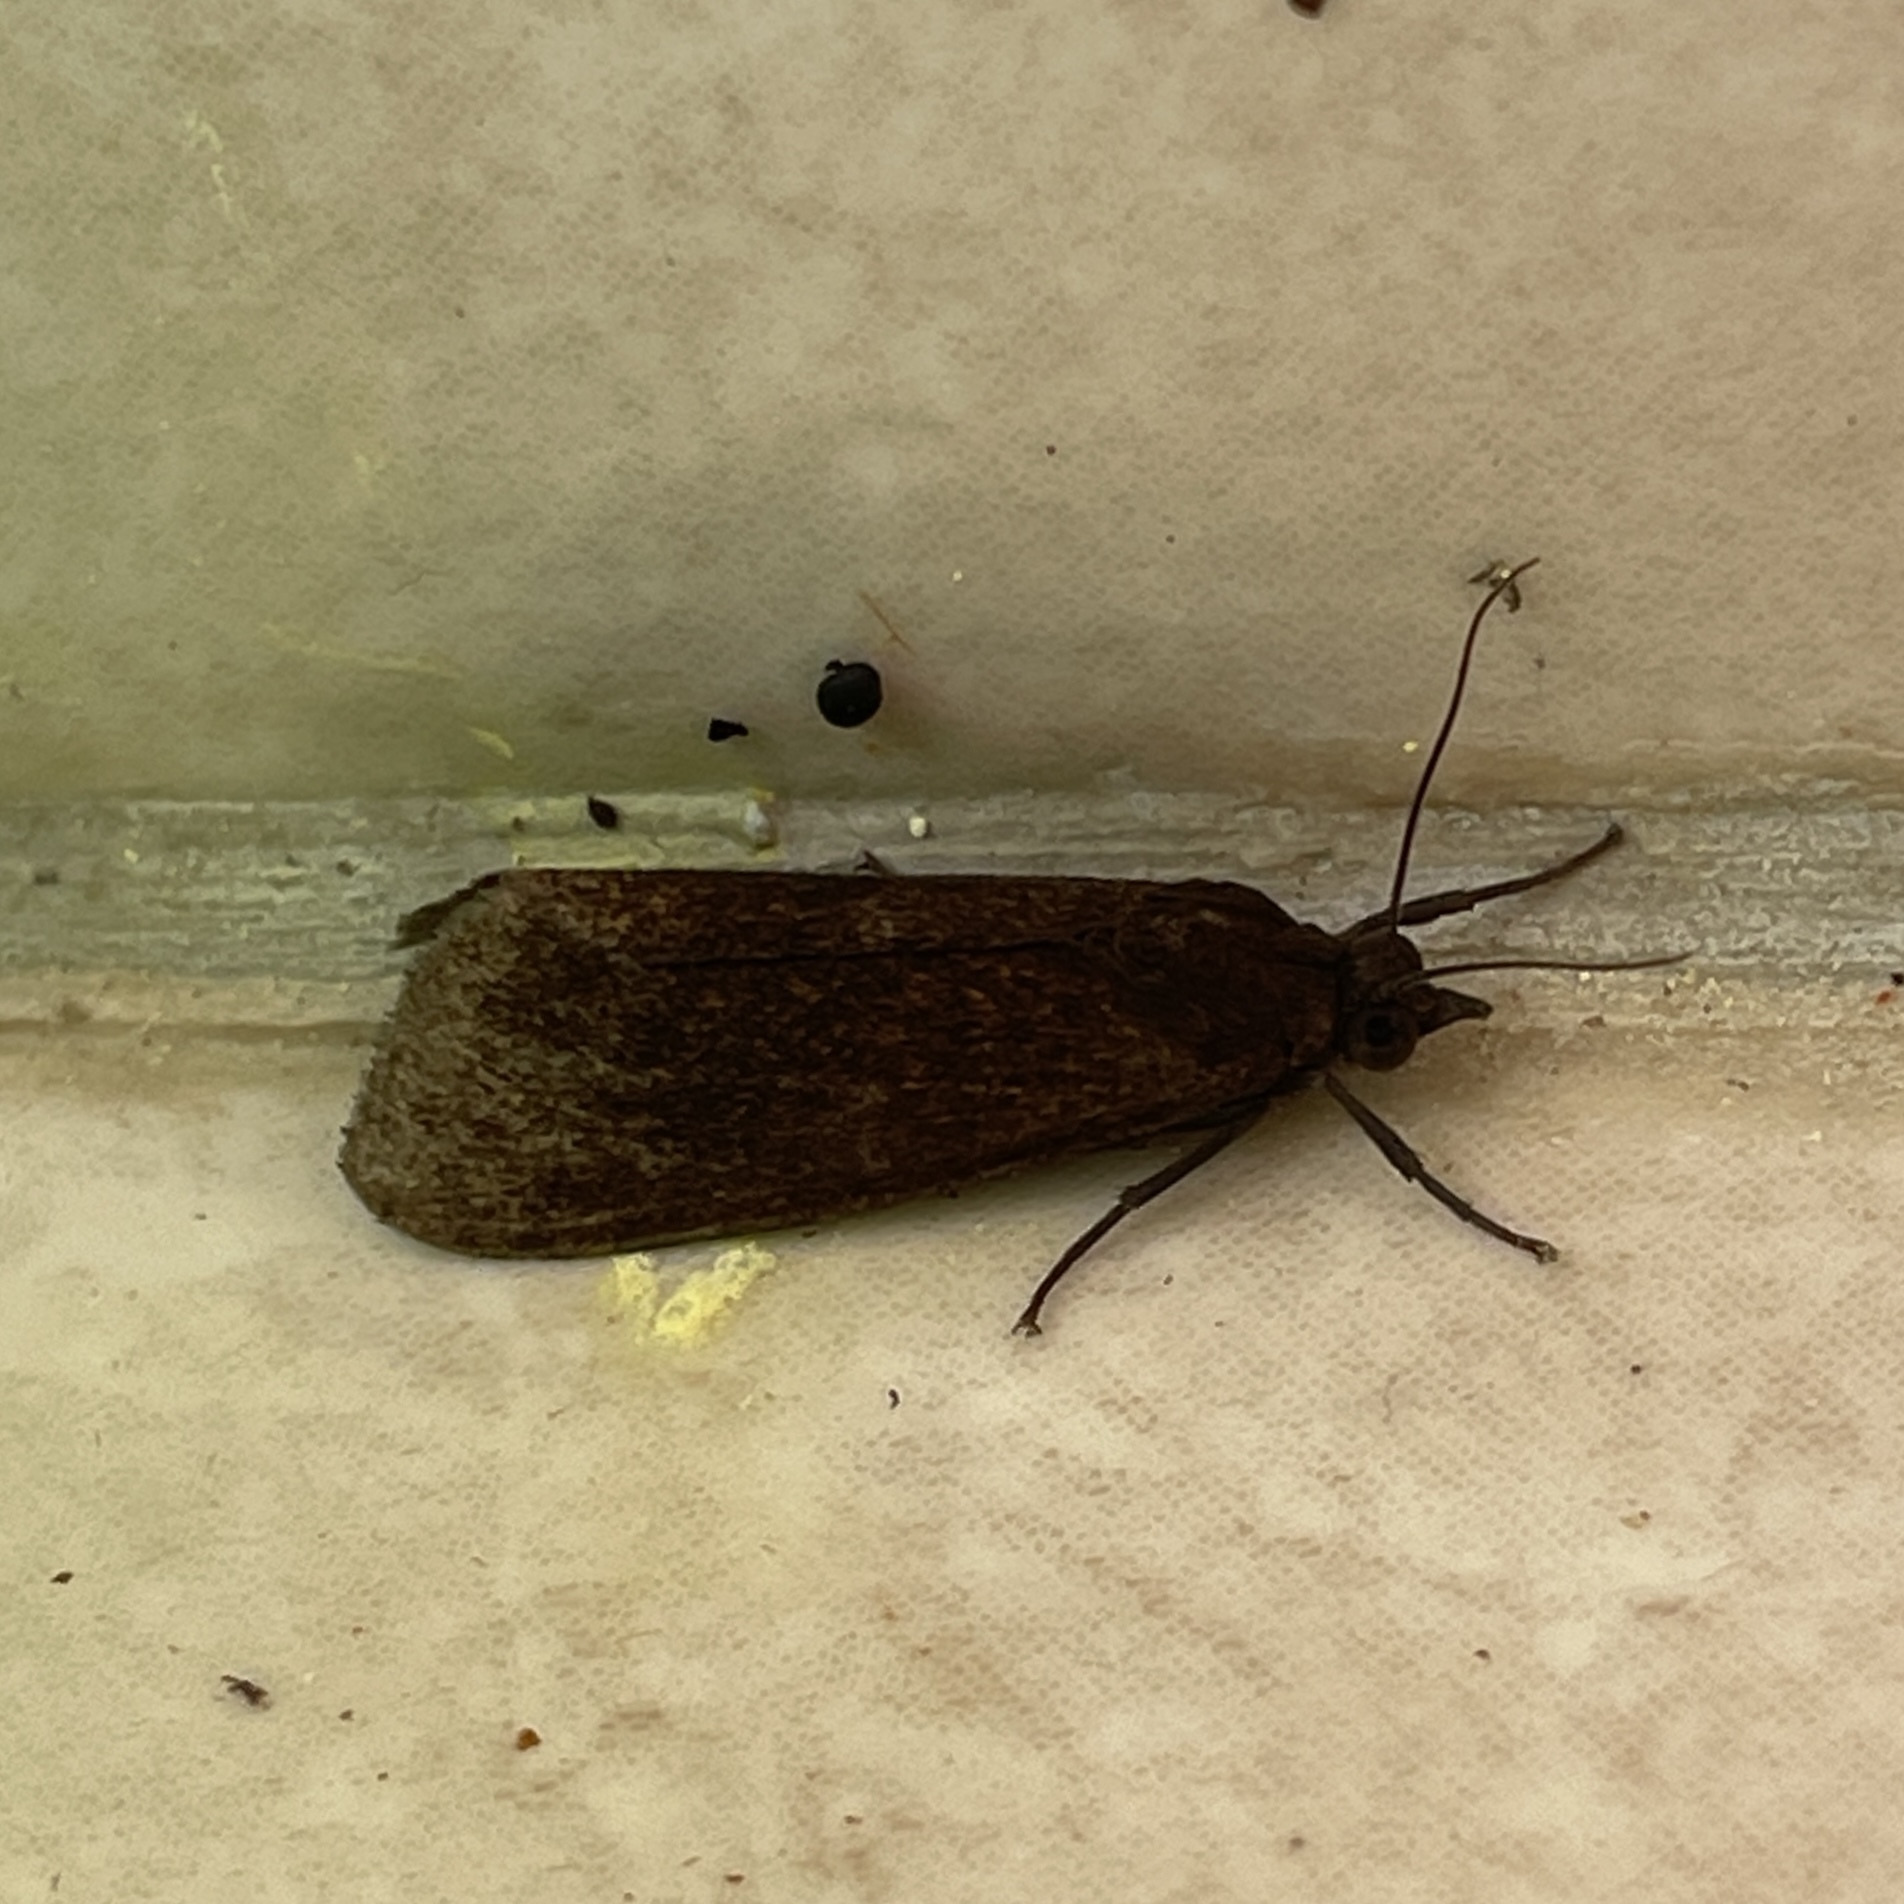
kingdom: Animalia
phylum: Arthropoda
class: Insecta
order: Lepidoptera
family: Erebidae
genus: Virbia
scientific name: Virbia medarda
